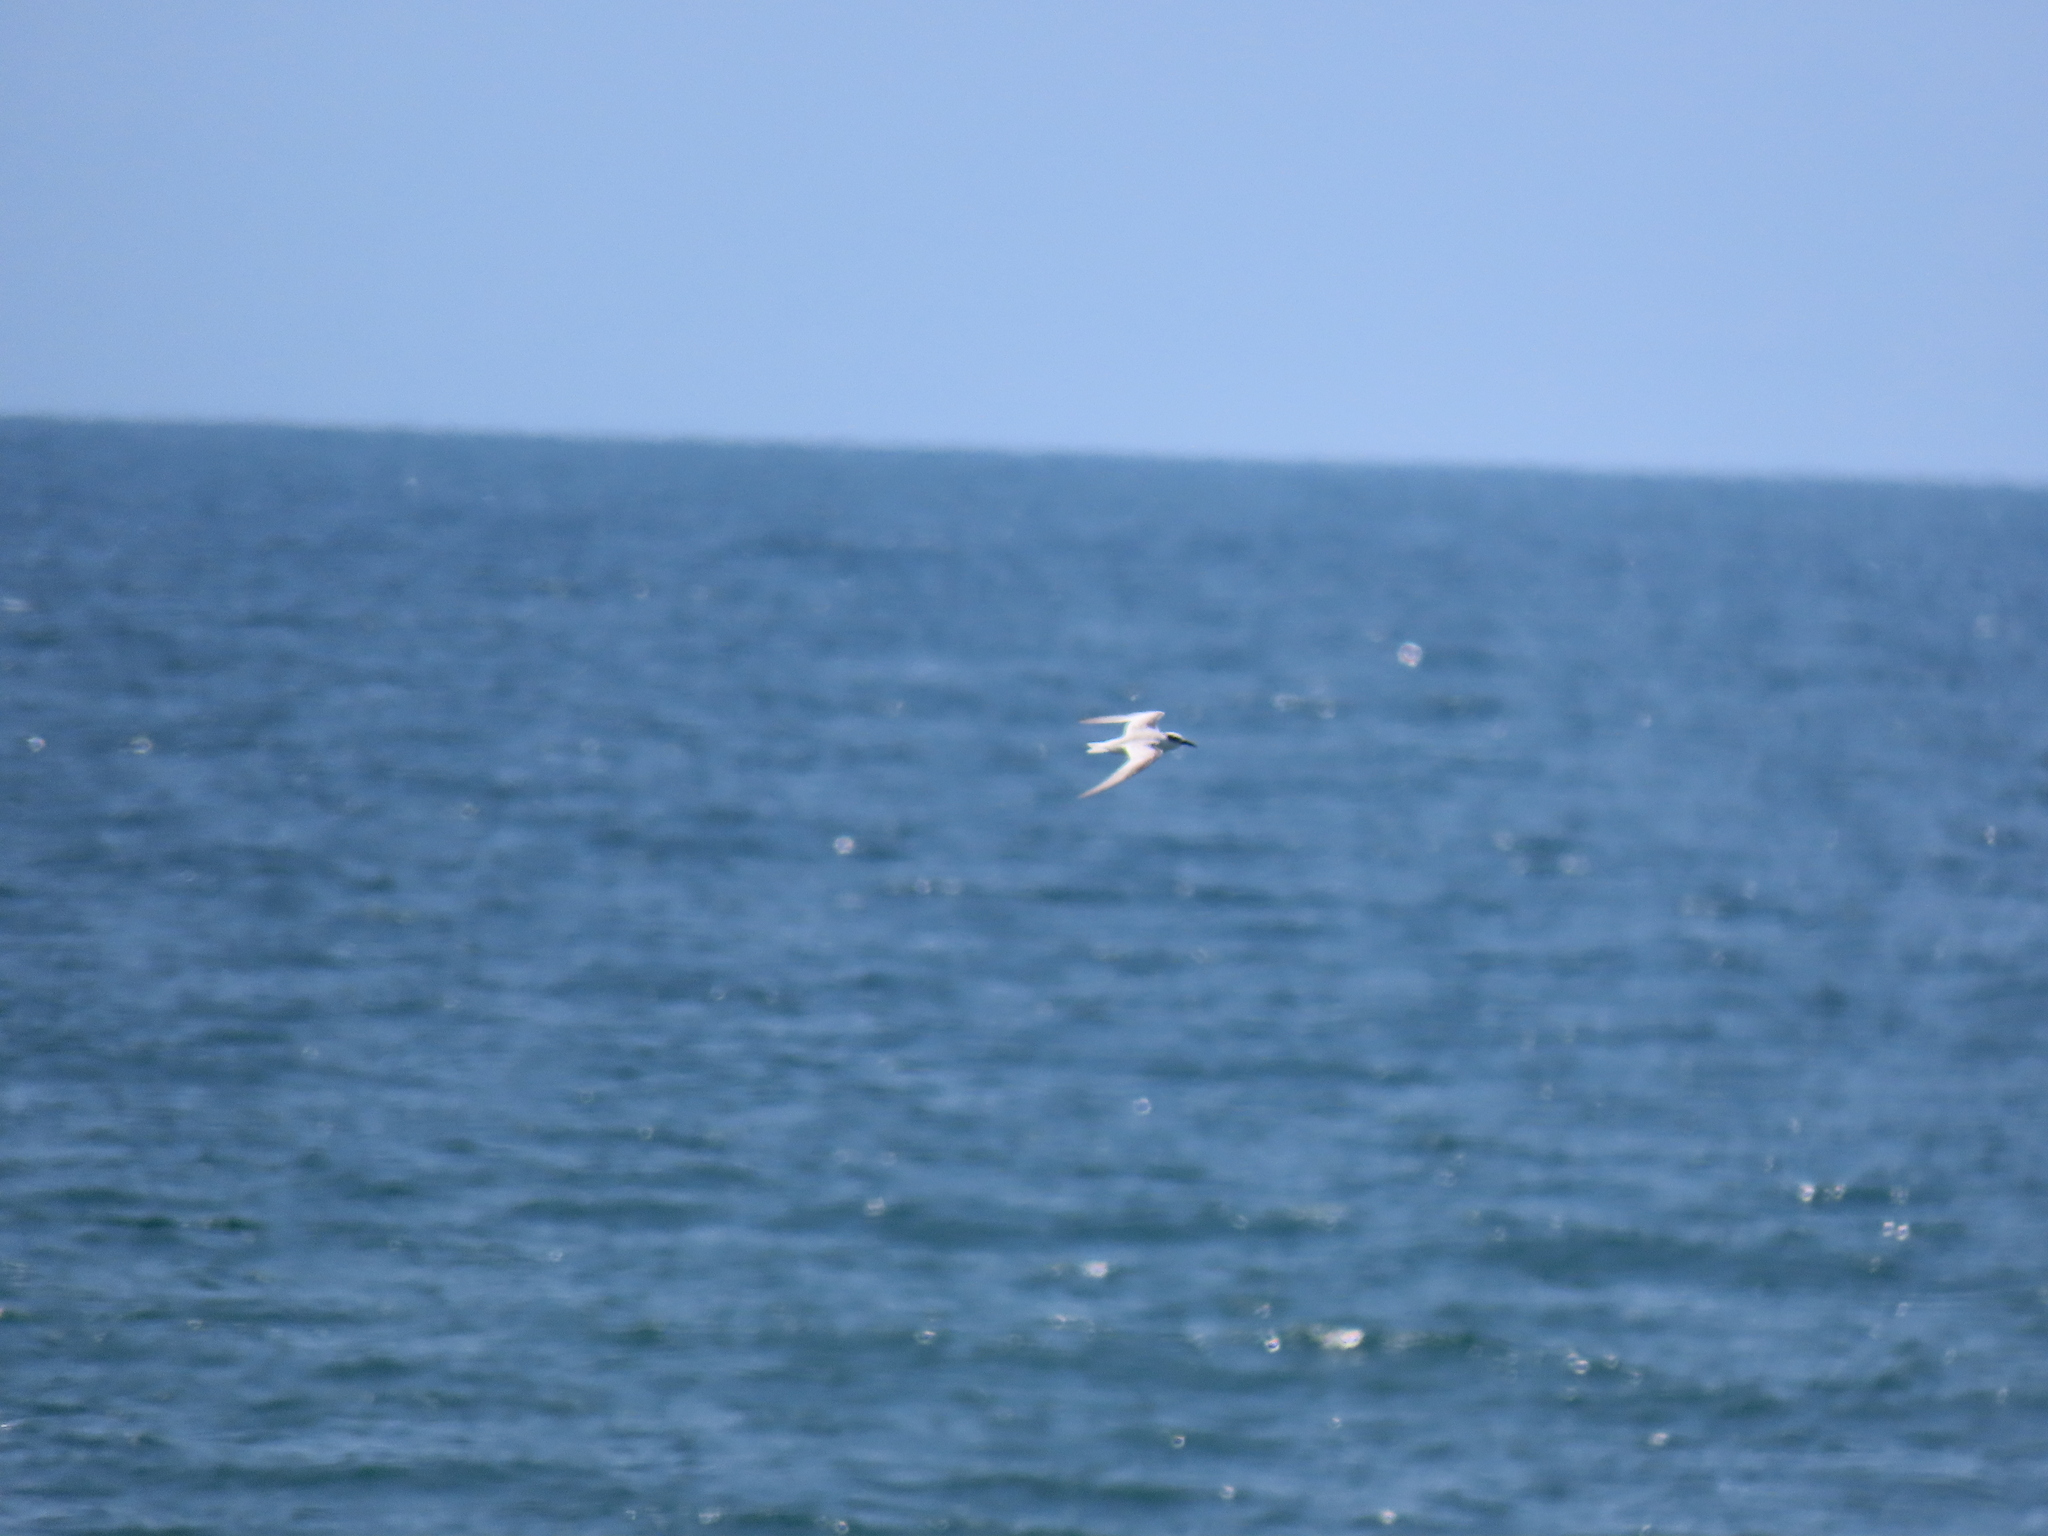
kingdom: Animalia
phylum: Chordata
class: Aves
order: Charadriiformes
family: Laridae
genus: Sterna
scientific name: Sterna forsteri
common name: Forster's tern
